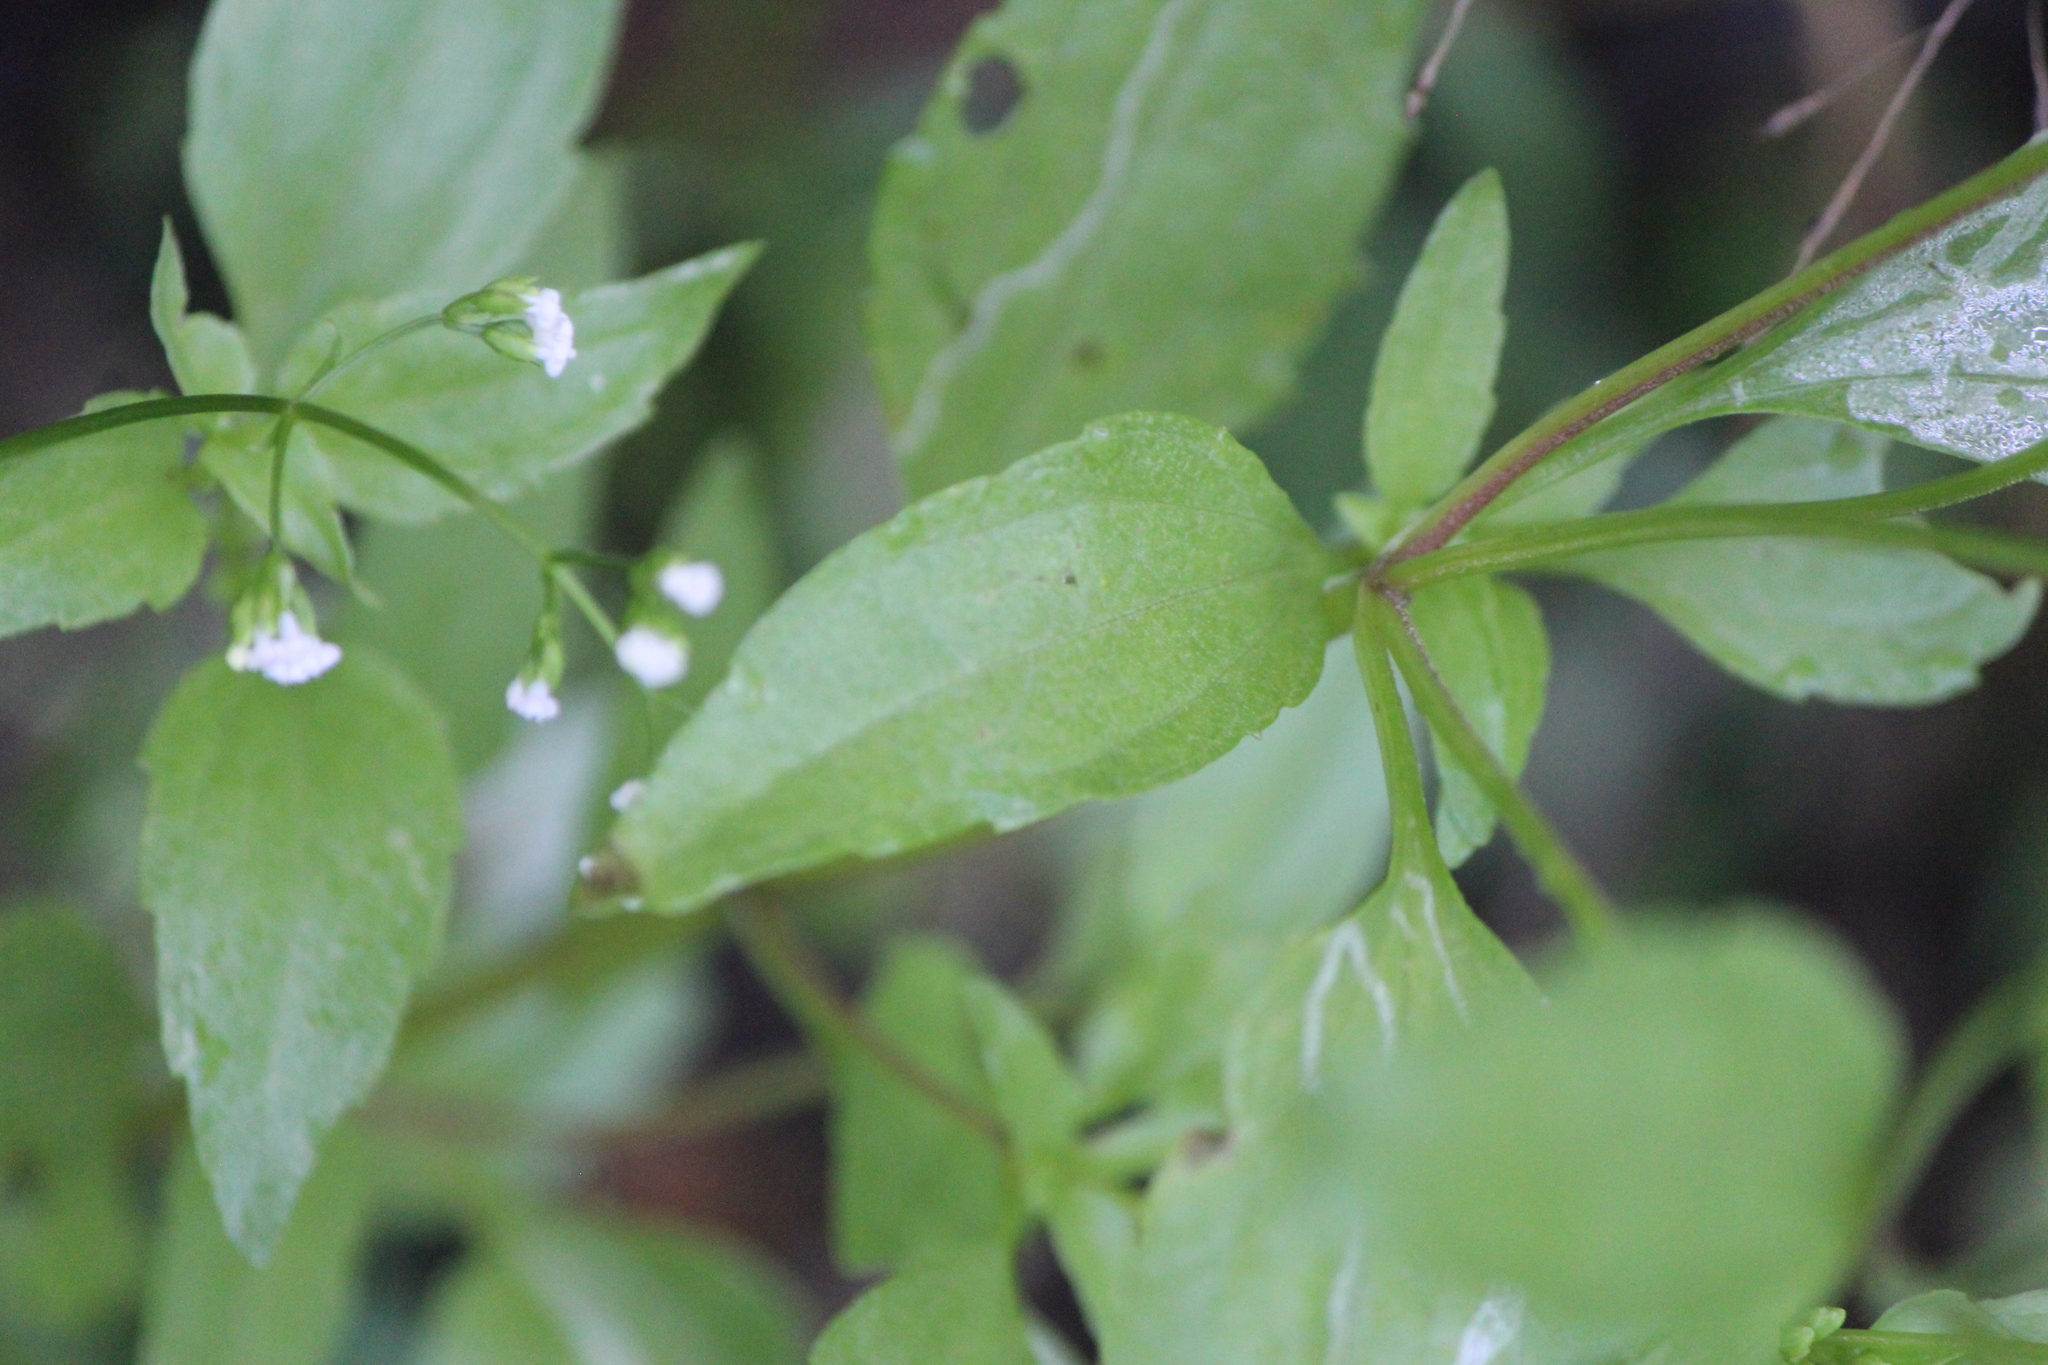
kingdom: Plantae
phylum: Tracheophyta
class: Magnoliopsida
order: Asterales
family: Asteraceae
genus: Piqueria
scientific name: Piqueria trinervia
